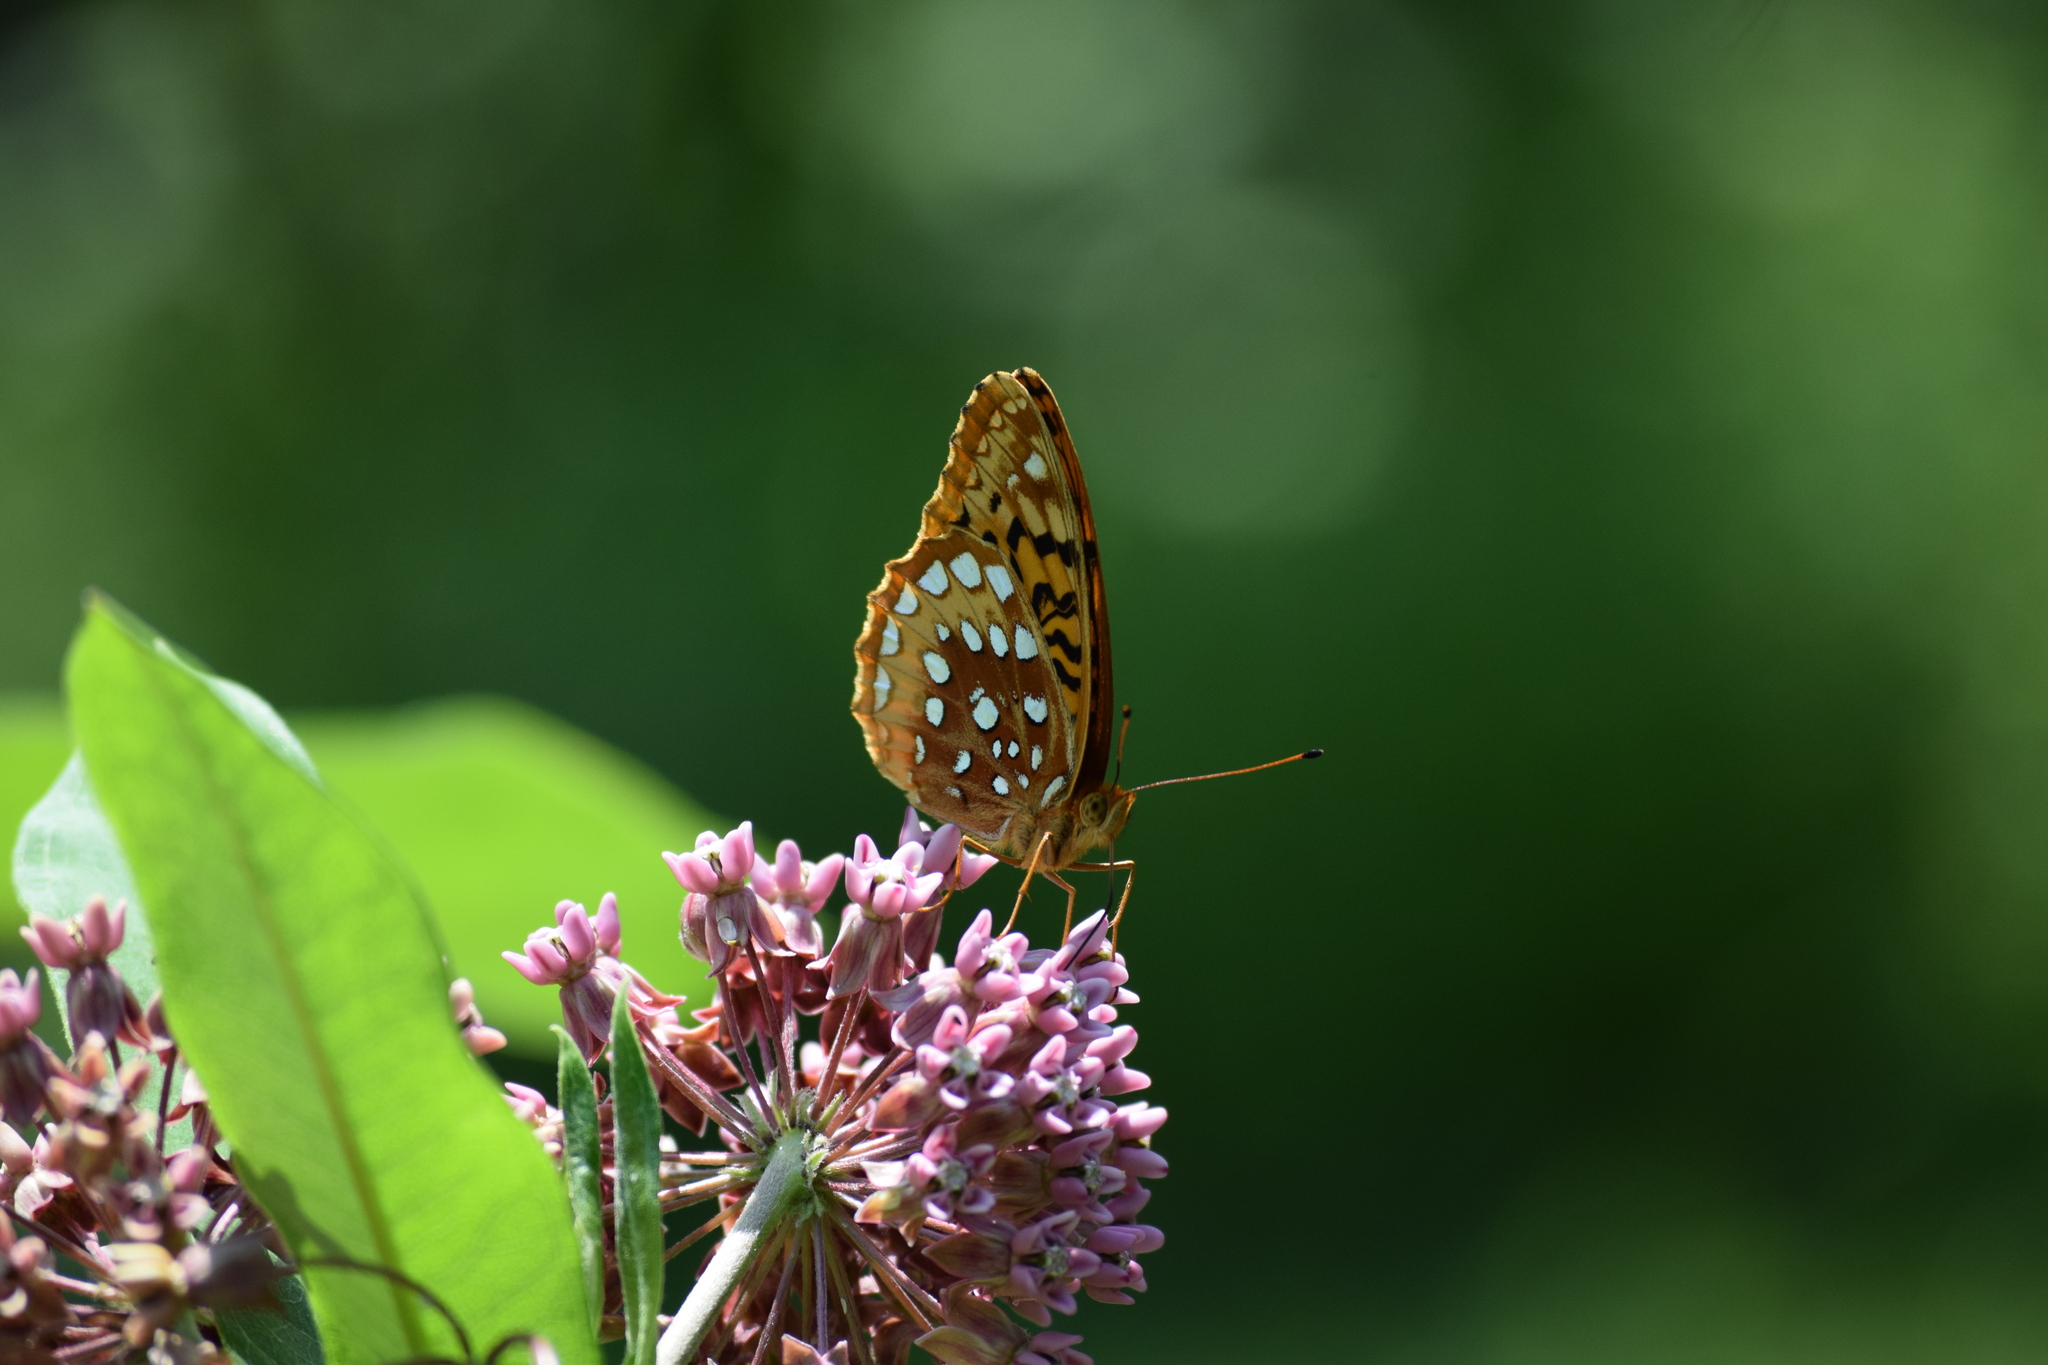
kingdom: Animalia
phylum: Arthropoda
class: Insecta
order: Lepidoptera
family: Nymphalidae
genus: Speyeria
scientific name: Speyeria cybele
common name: Great spangled fritillary
